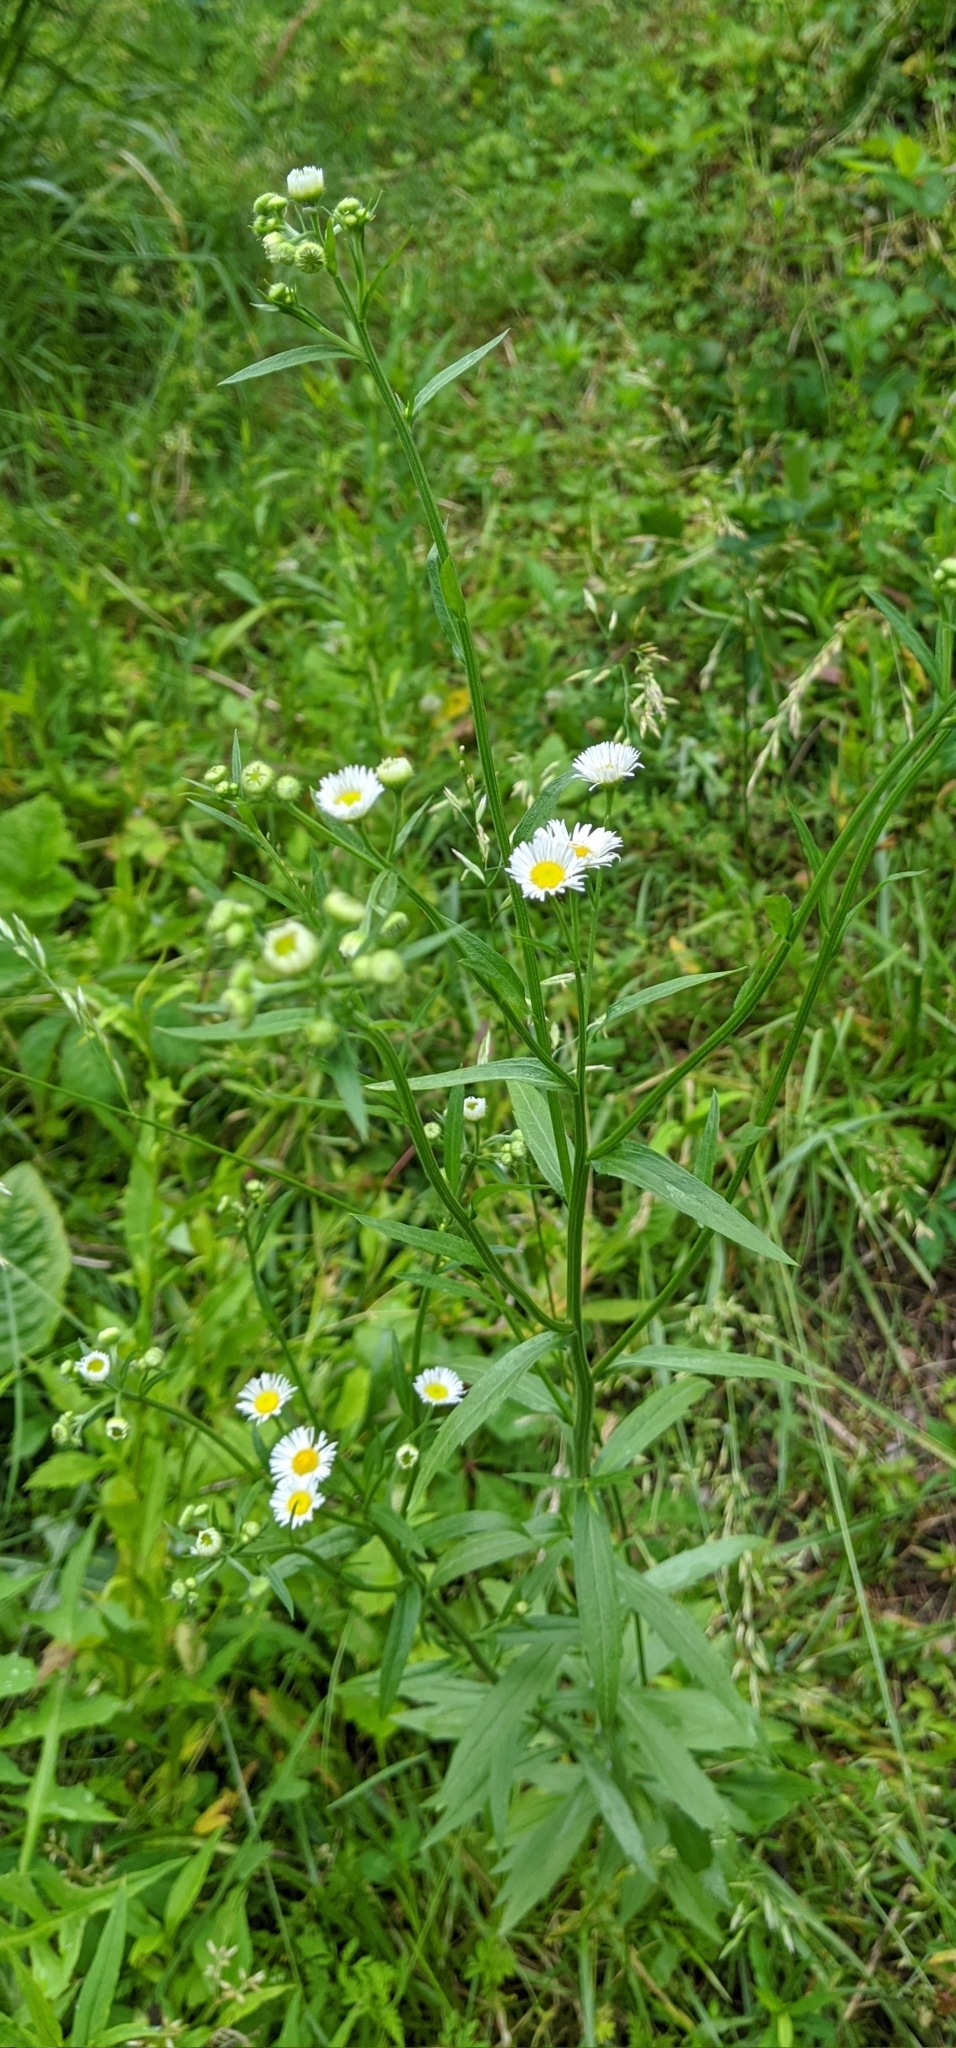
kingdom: Plantae
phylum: Tracheophyta
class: Magnoliopsida
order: Asterales
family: Asteraceae
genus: Erigeron
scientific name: Erigeron strigosus
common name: Common eastern fleabane
